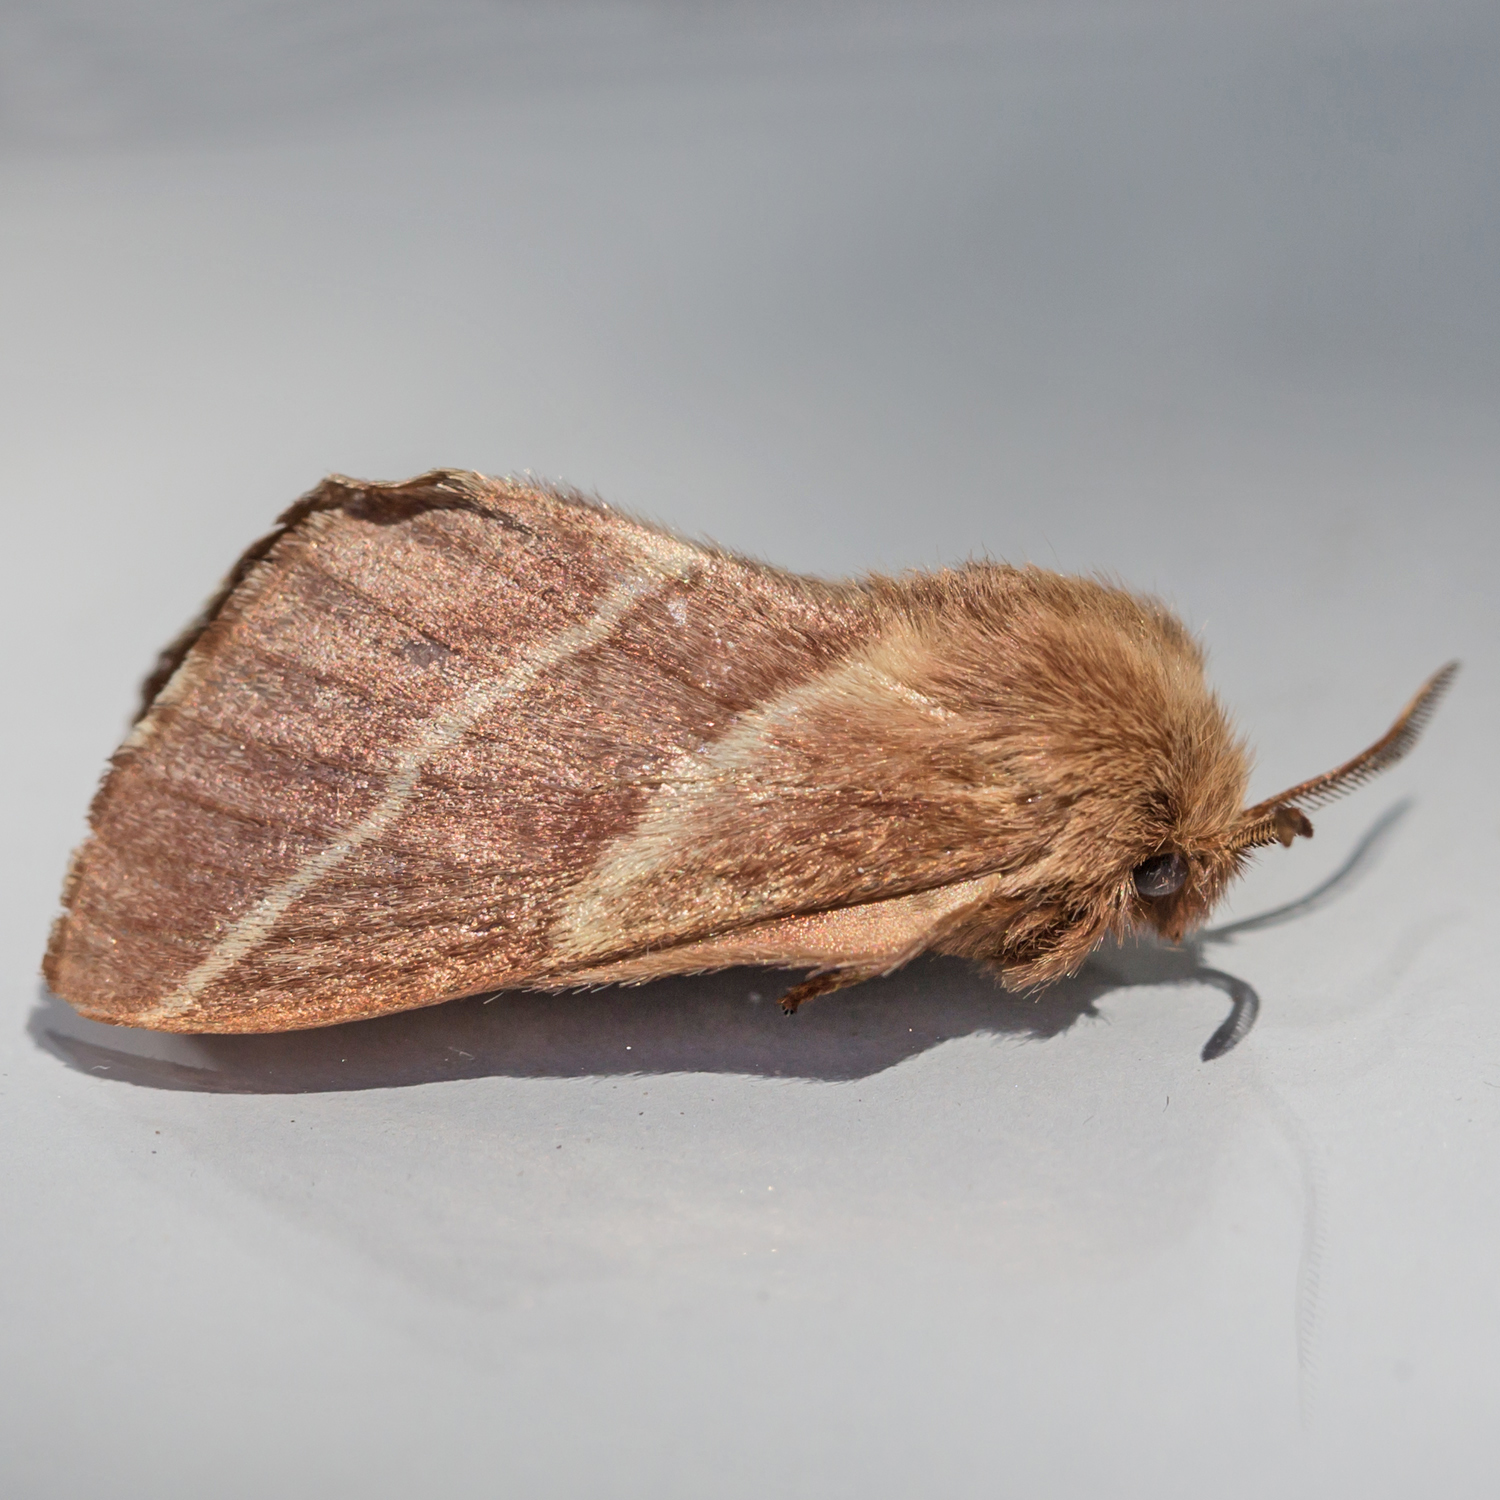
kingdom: Animalia
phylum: Arthropoda
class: Insecta
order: Lepidoptera
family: Lasiocampidae
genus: Malacosoma
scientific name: Malacosoma americana
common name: Eastern tent caterpillar moth
